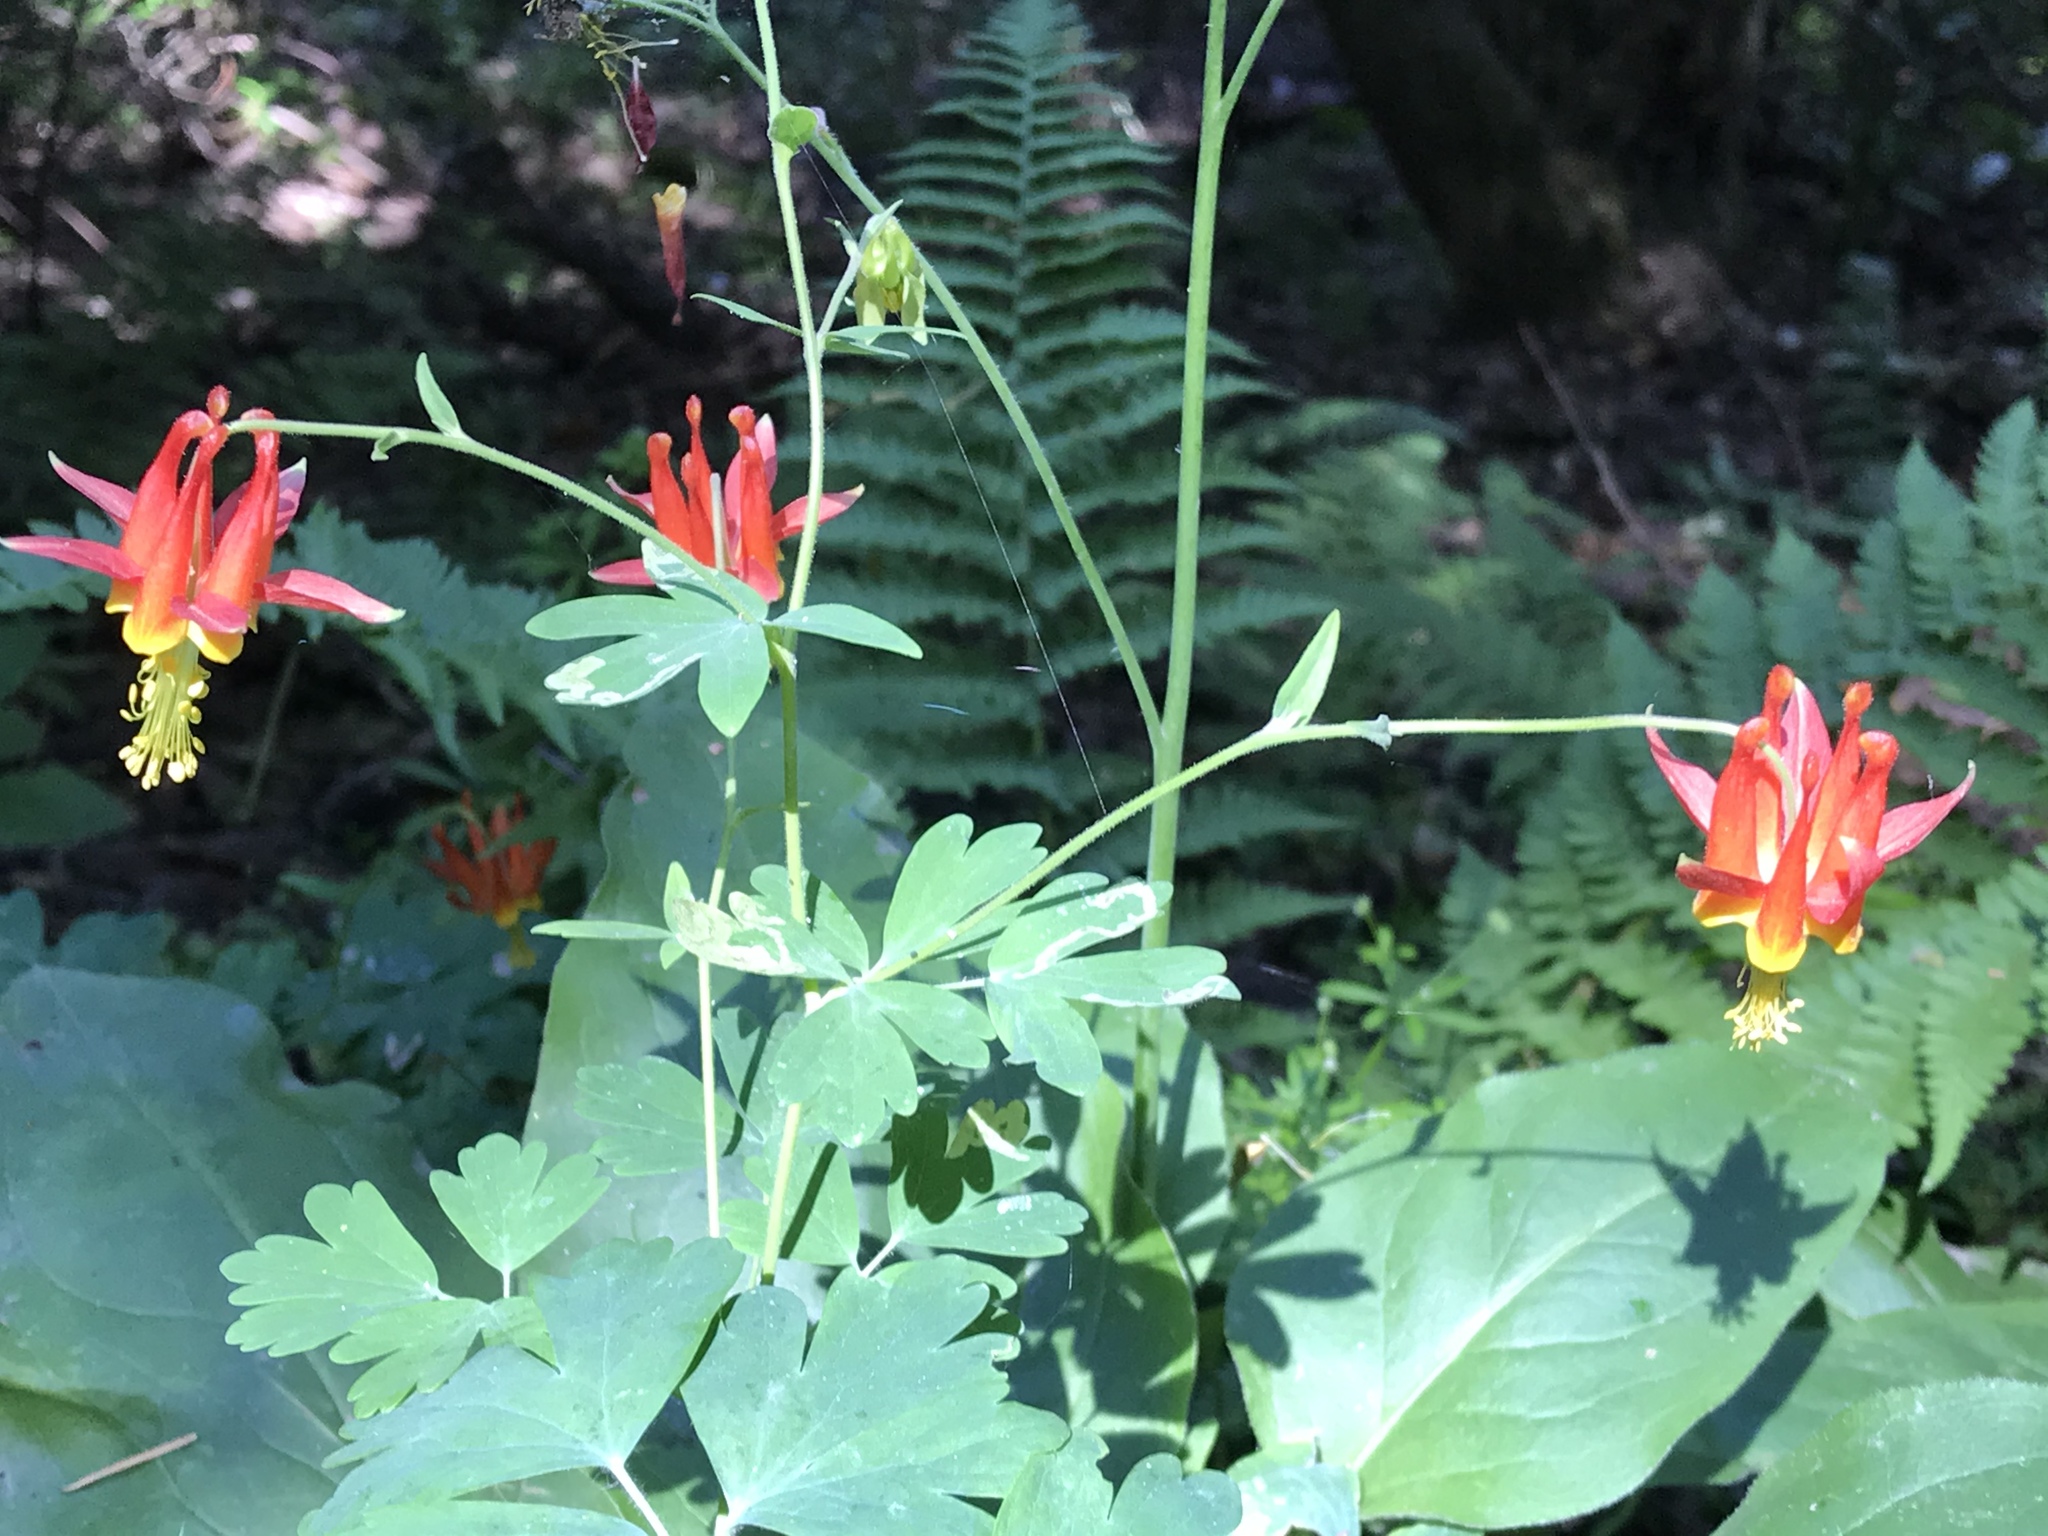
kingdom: Plantae
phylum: Tracheophyta
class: Magnoliopsida
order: Ranunculales
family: Ranunculaceae
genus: Aquilegia
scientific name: Aquilegia formosa
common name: Sitka columbine
